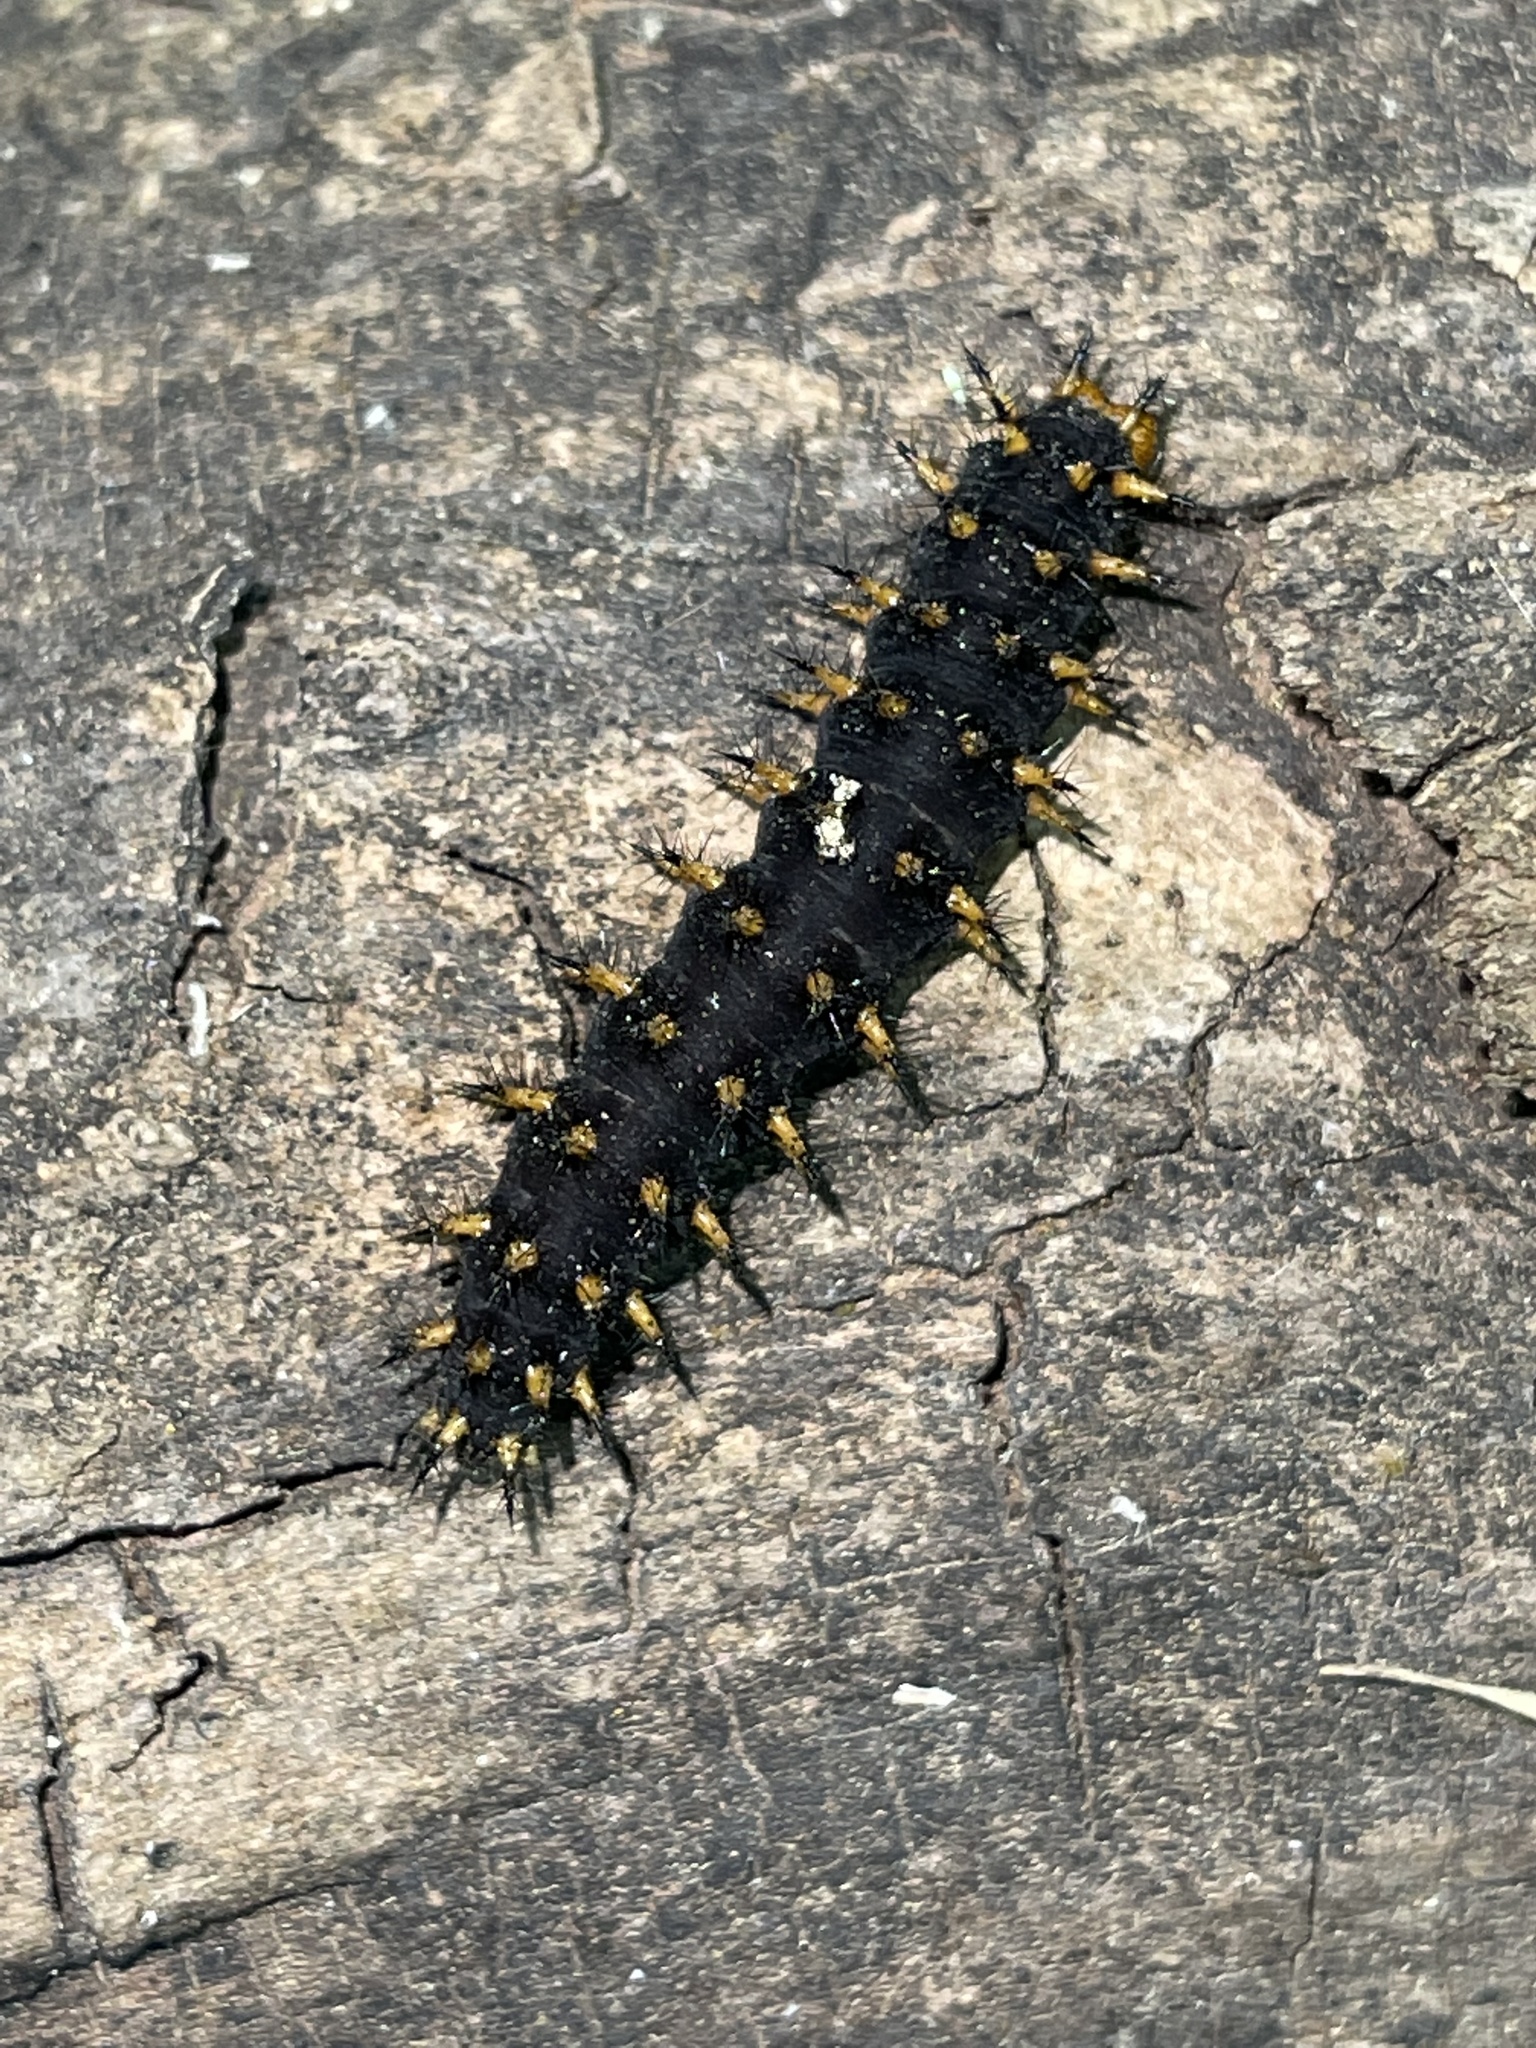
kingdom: Animalia
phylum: Arthropoda
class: Insecta
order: Lepidoptera
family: Nymphalidae
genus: Speyeria
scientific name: Speyeria cybele
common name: Great spangled fritillary
